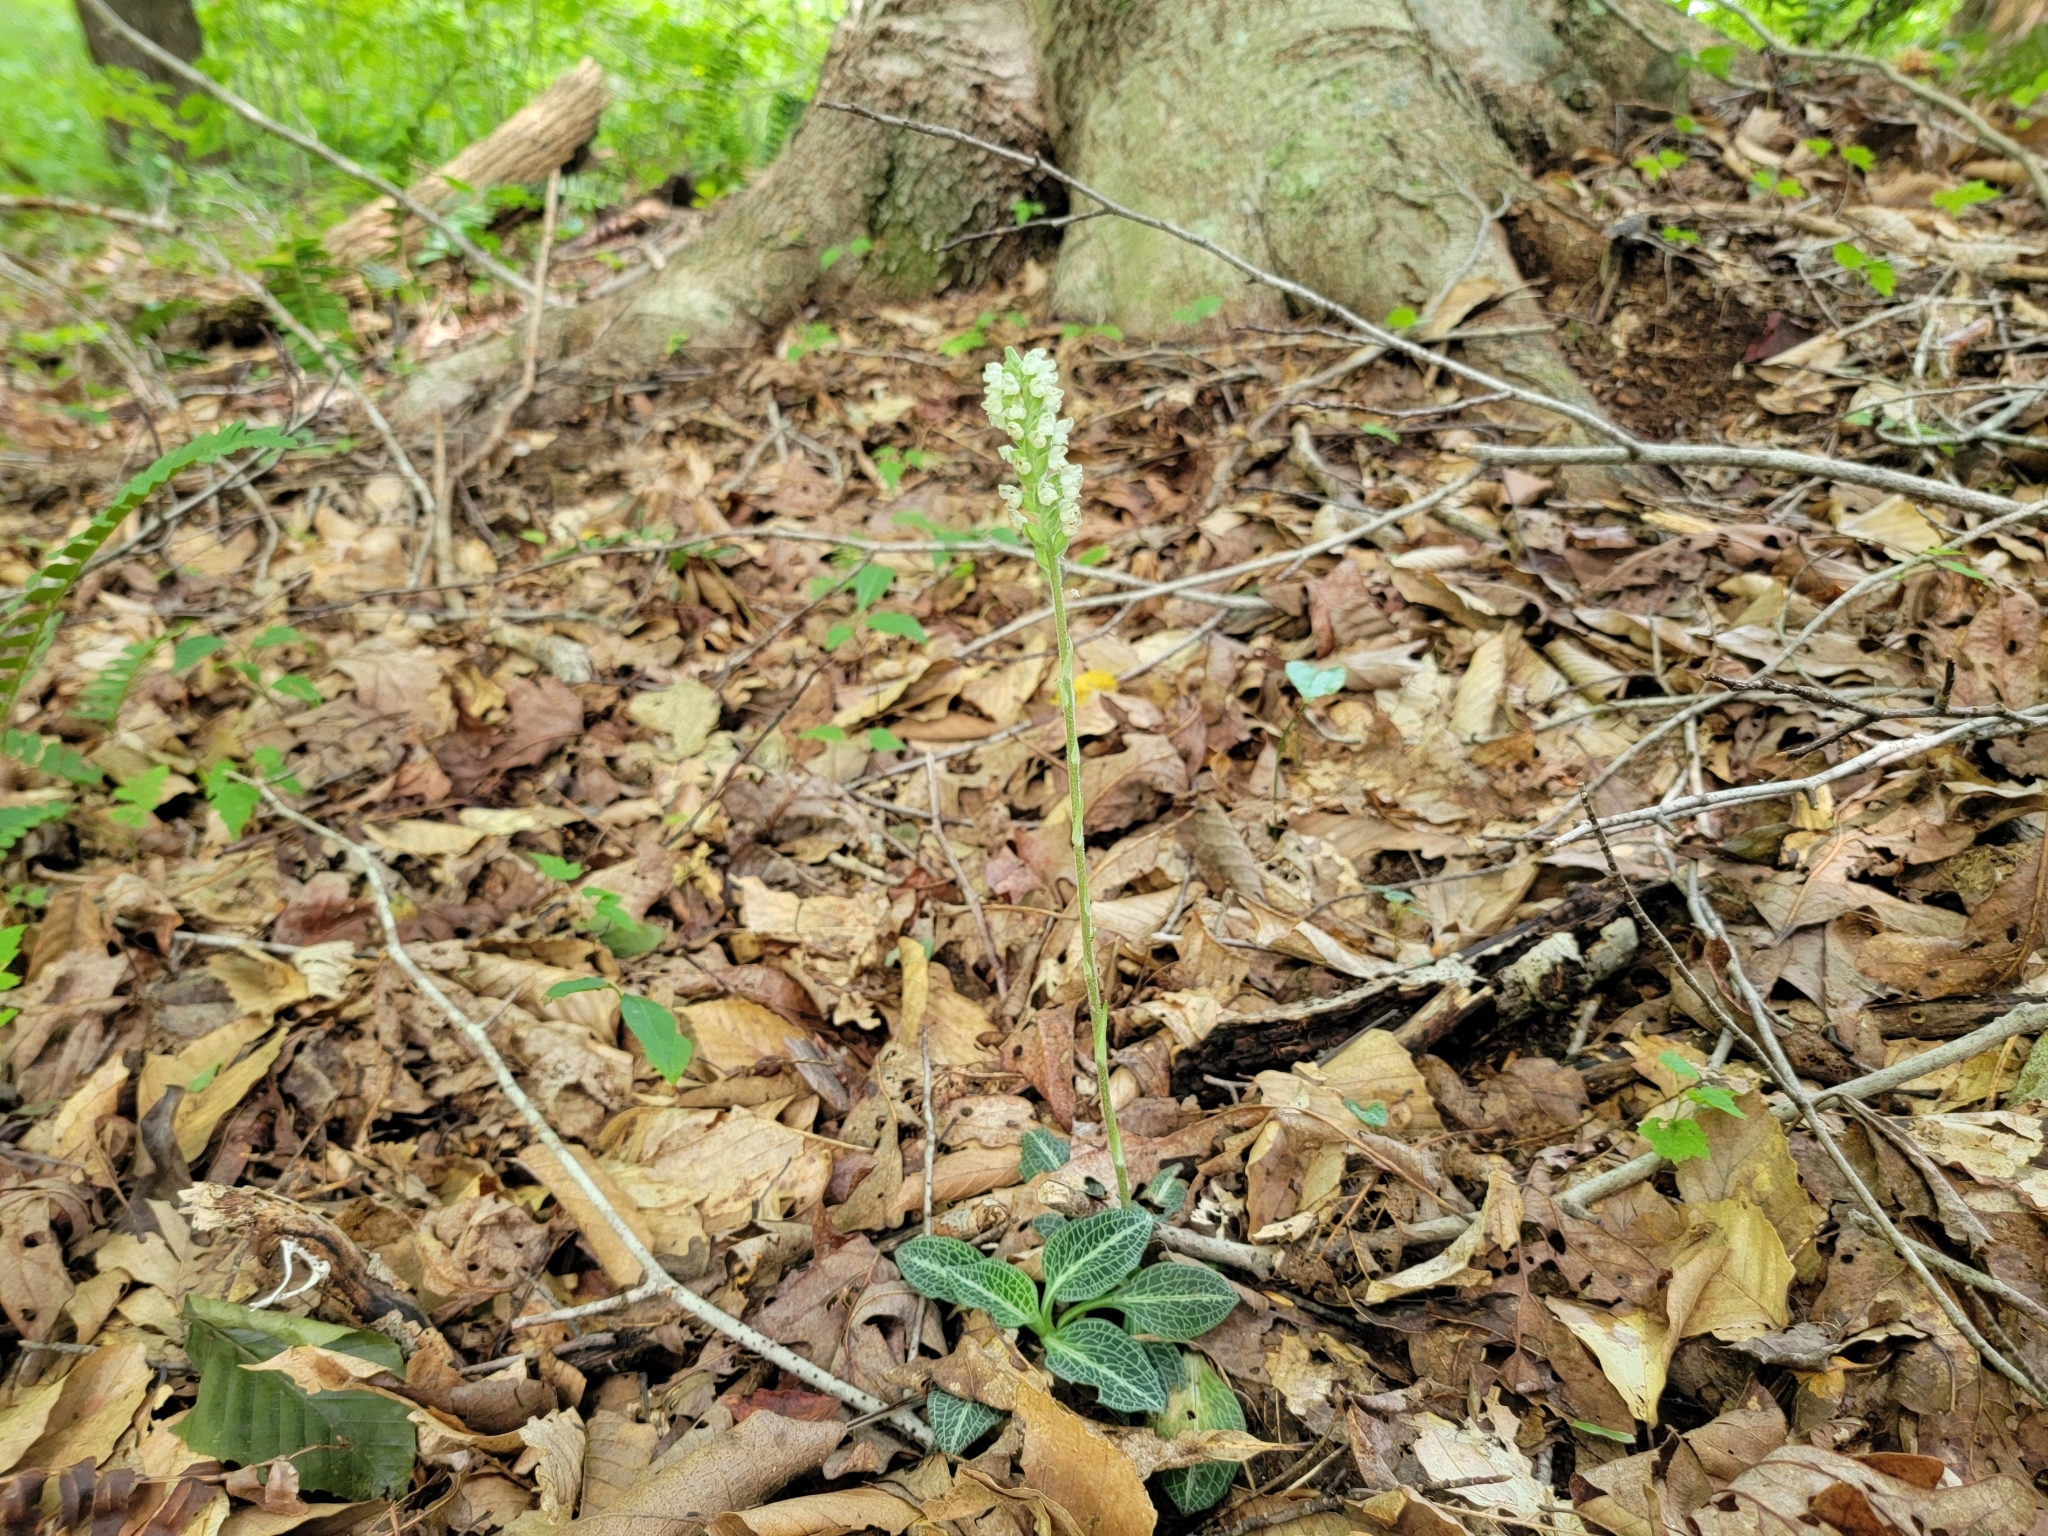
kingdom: Plantae
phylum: Tracheophyta
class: Liliopsida
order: Asparagales
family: Orchidaceae
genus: Goodyera
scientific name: Goodyera pubescens
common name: Downy rattlesnake-plantain
